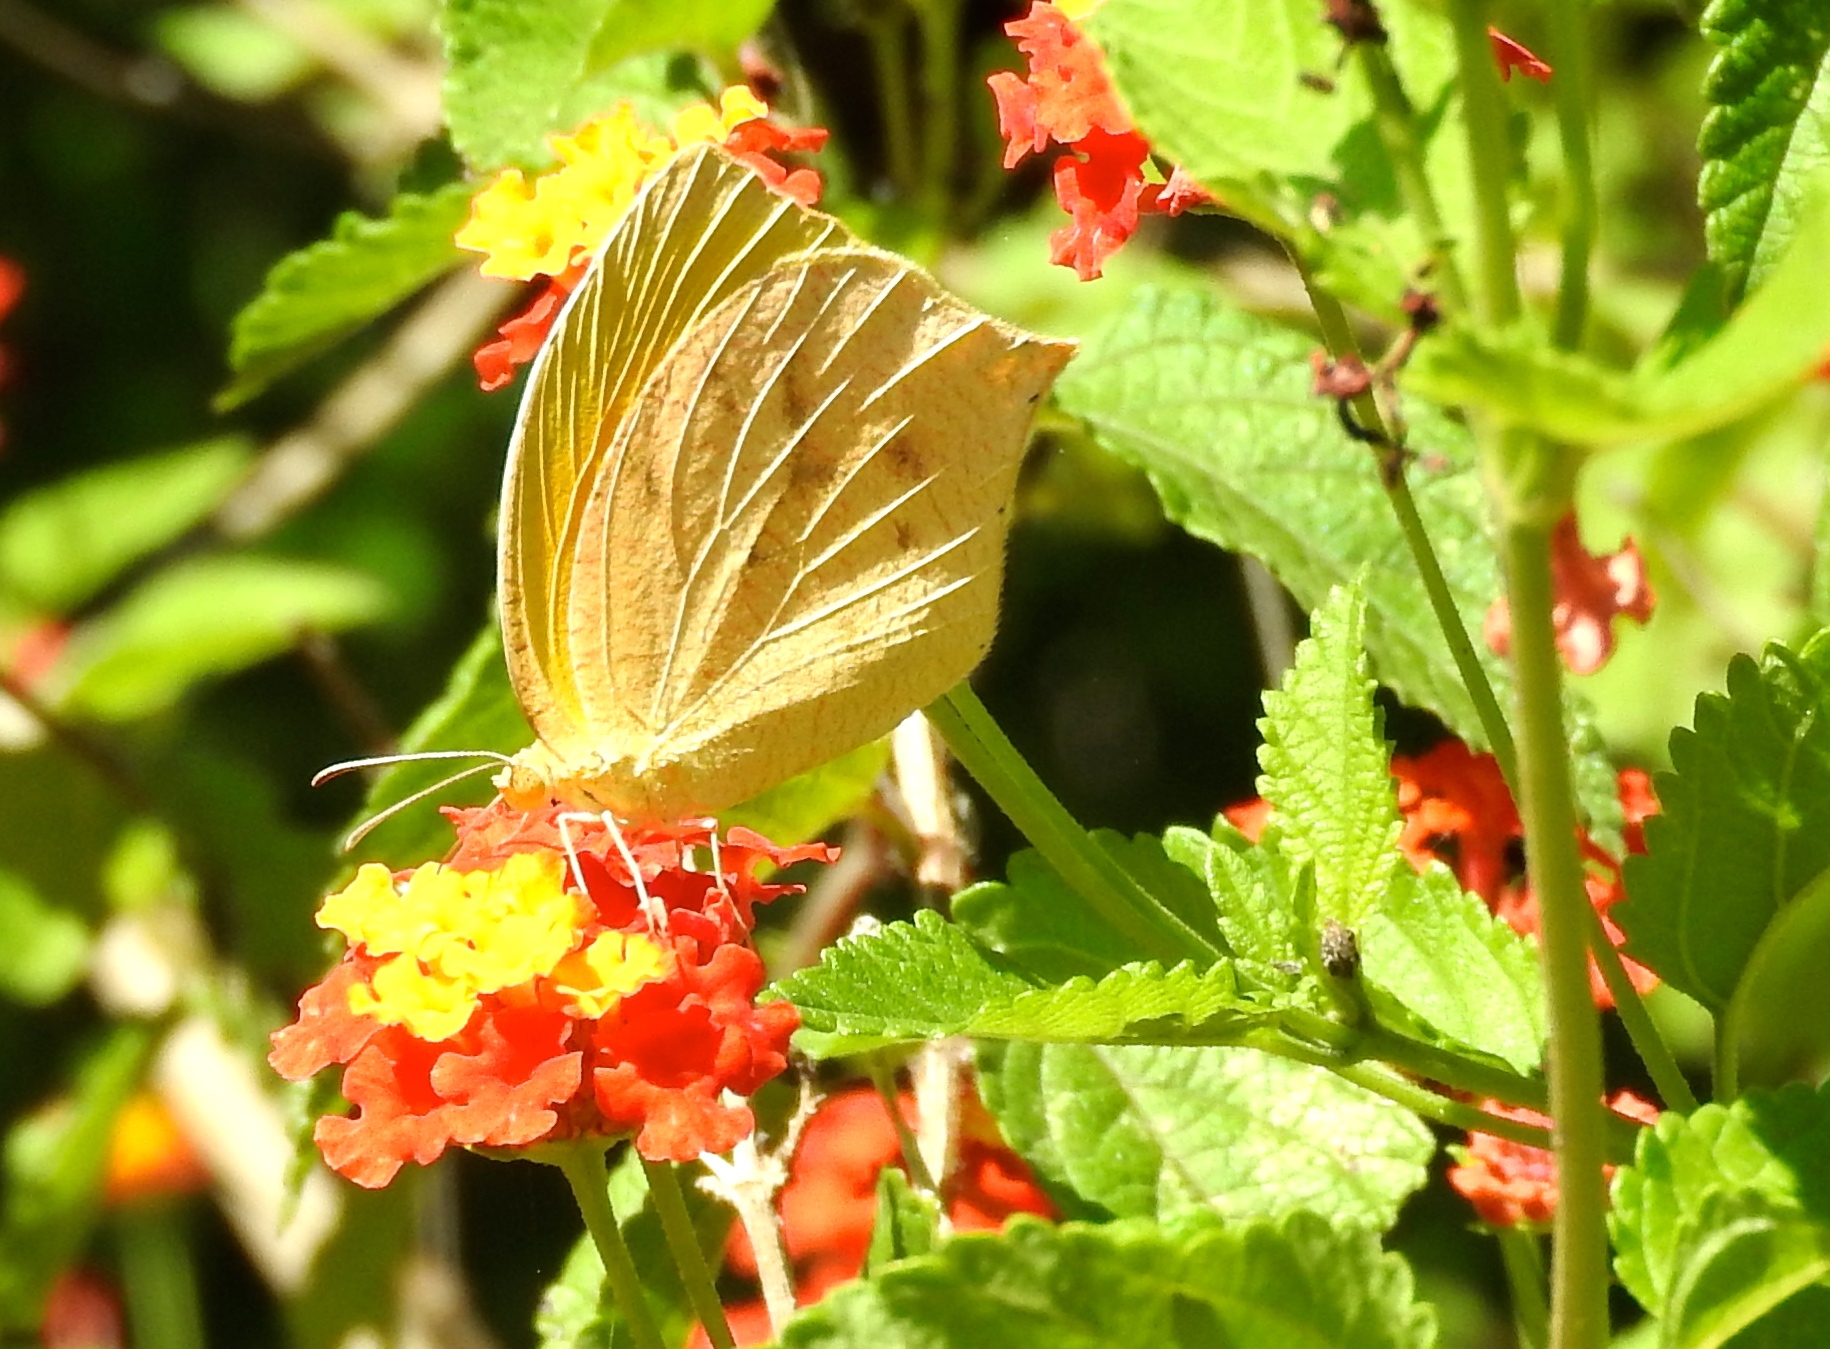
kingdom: Animalia
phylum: Arthropoda
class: Insecta
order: Lepidoptera
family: Pieridae
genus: Pyrisitia
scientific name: Pyrisitia proterpia
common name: Tailed orange
